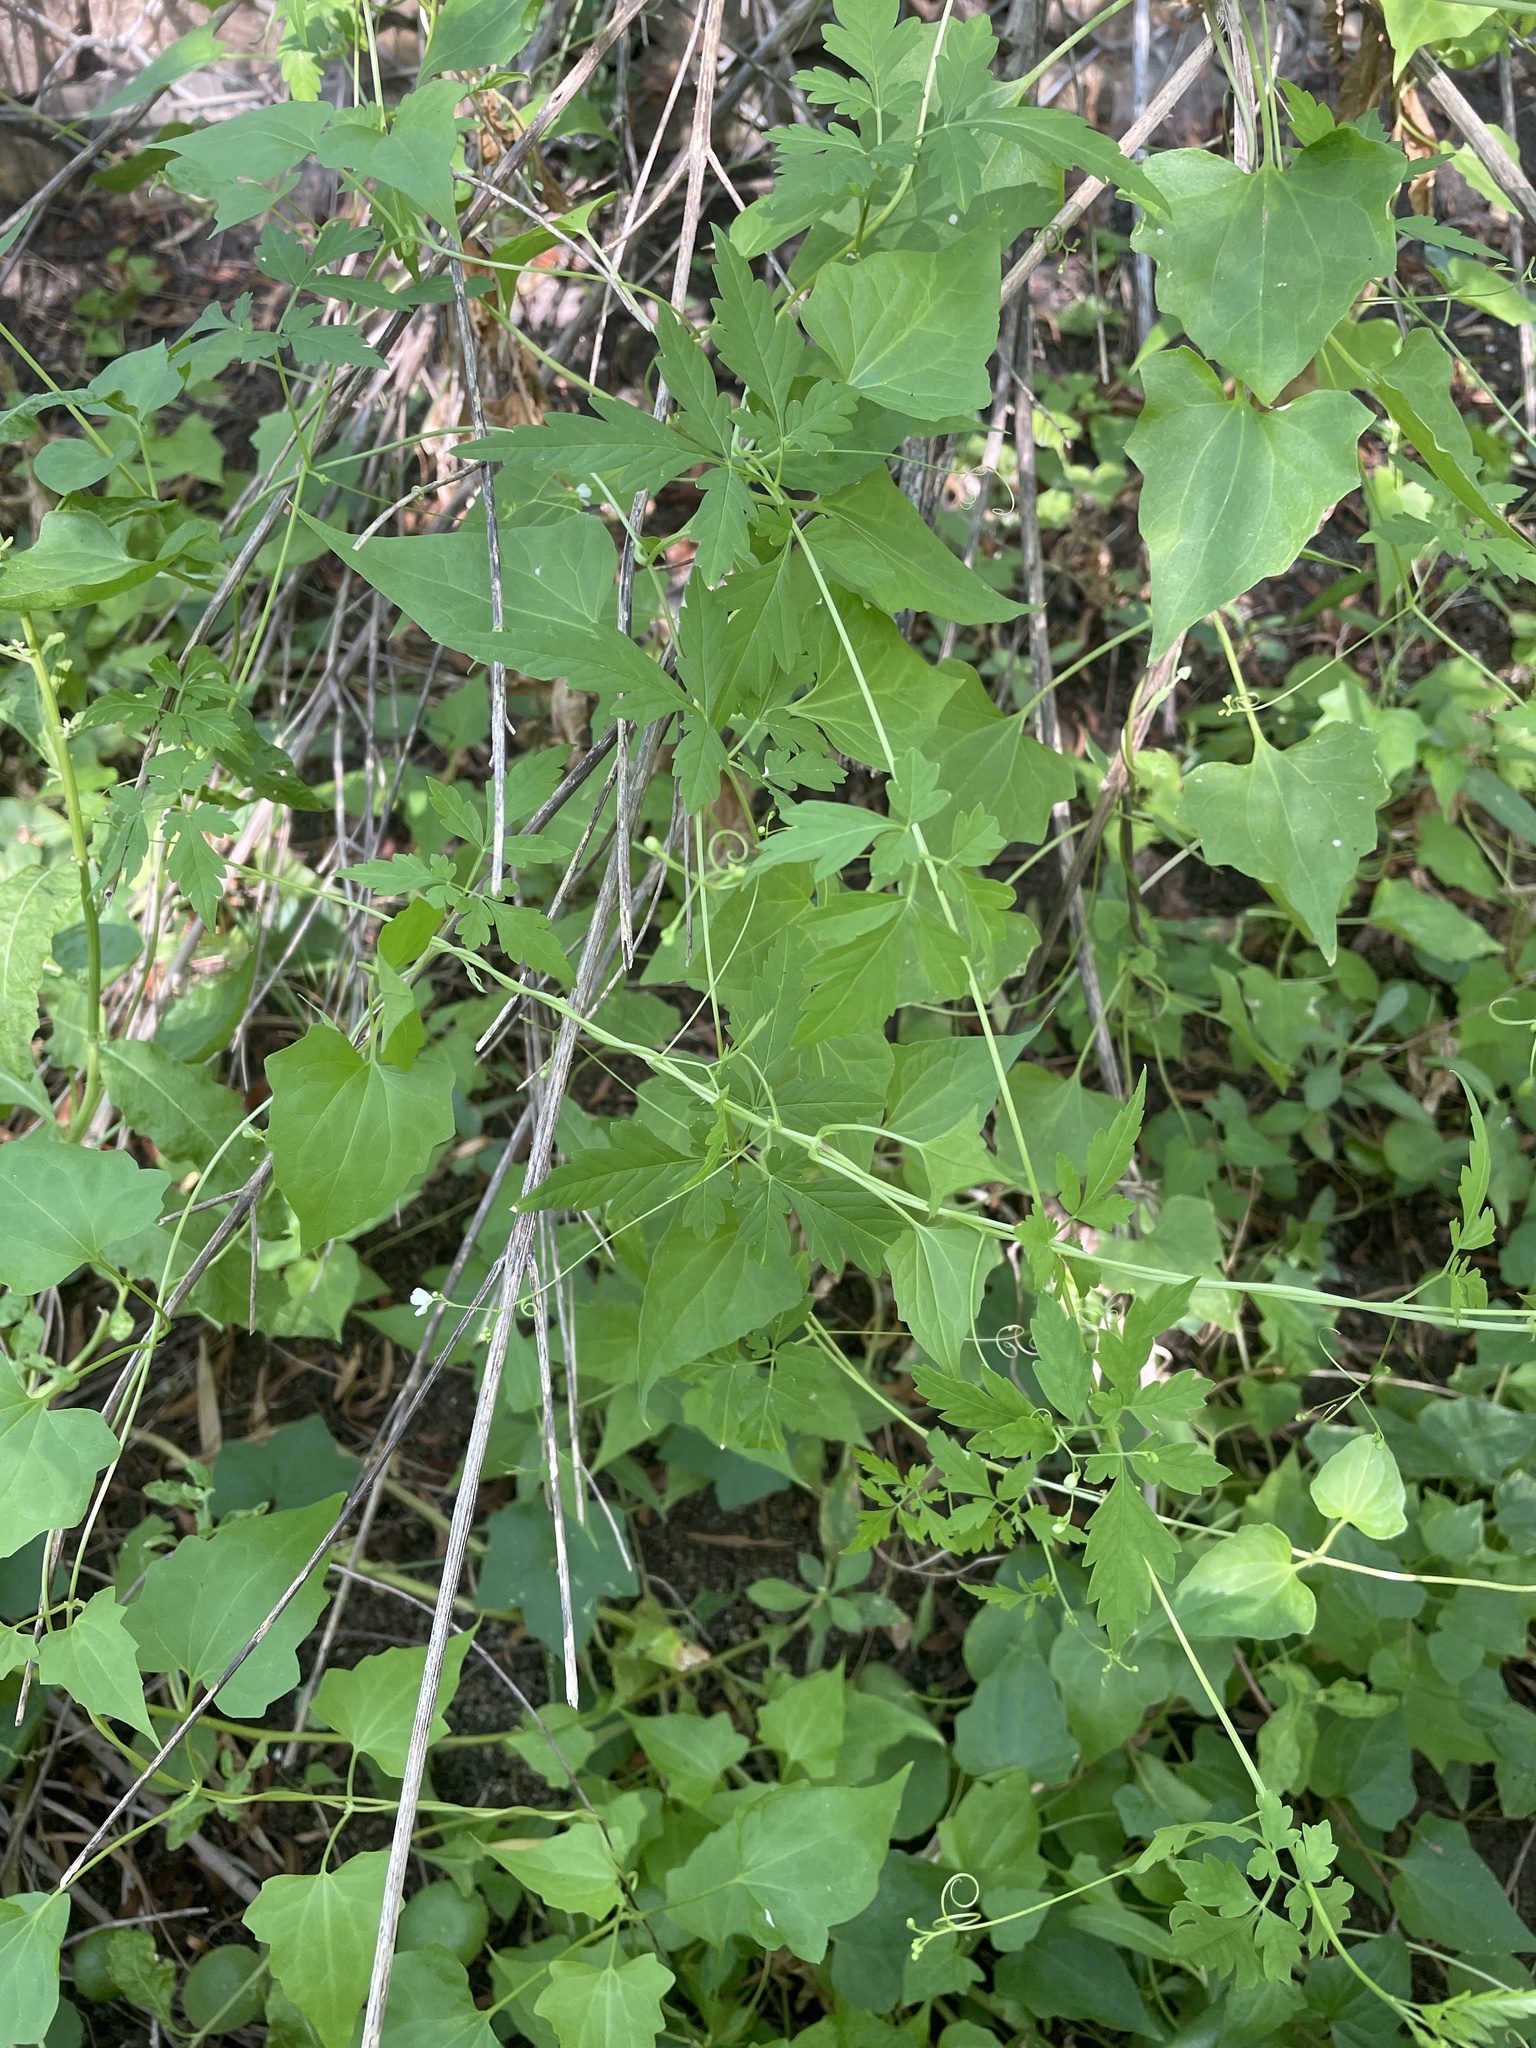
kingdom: Plantae
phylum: Tracheophyta
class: Magnoliopsida
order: Sapindales
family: Sapindaceae
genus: Cardiospermum
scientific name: Cardiospermum halicacabum
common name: Balloon vine
